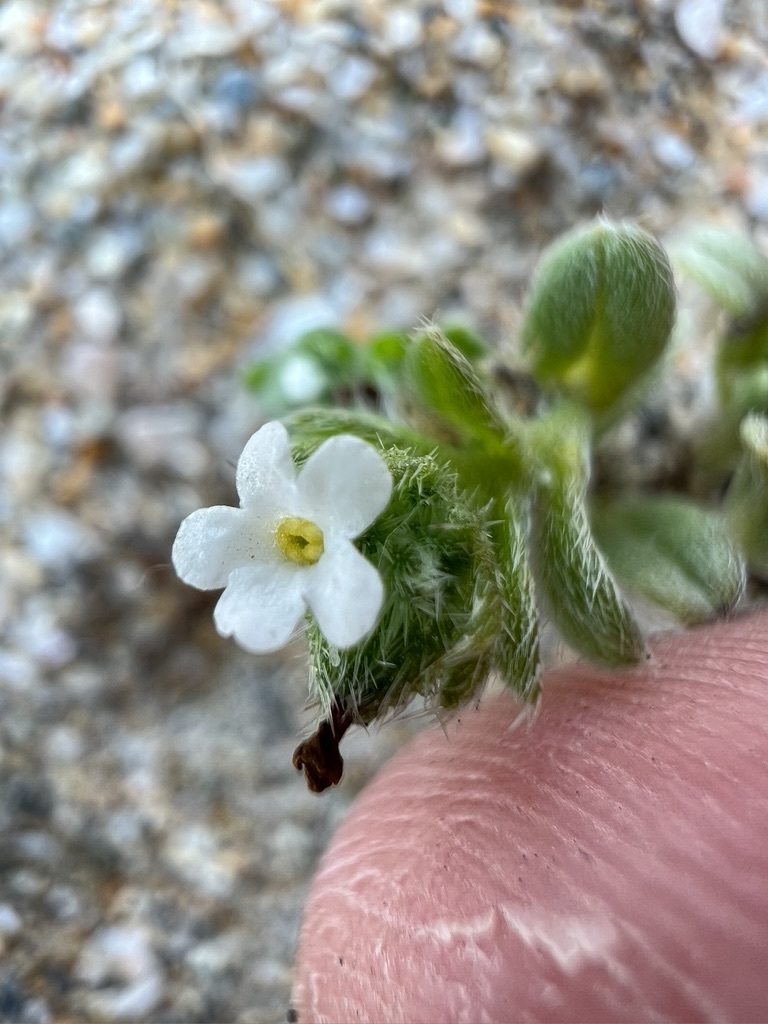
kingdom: Plantae
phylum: Tracheophyta
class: Magnoliopsida
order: Boraginales
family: Boraginaceae
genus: Cryptantha
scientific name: Cryptantha leiocarpa
